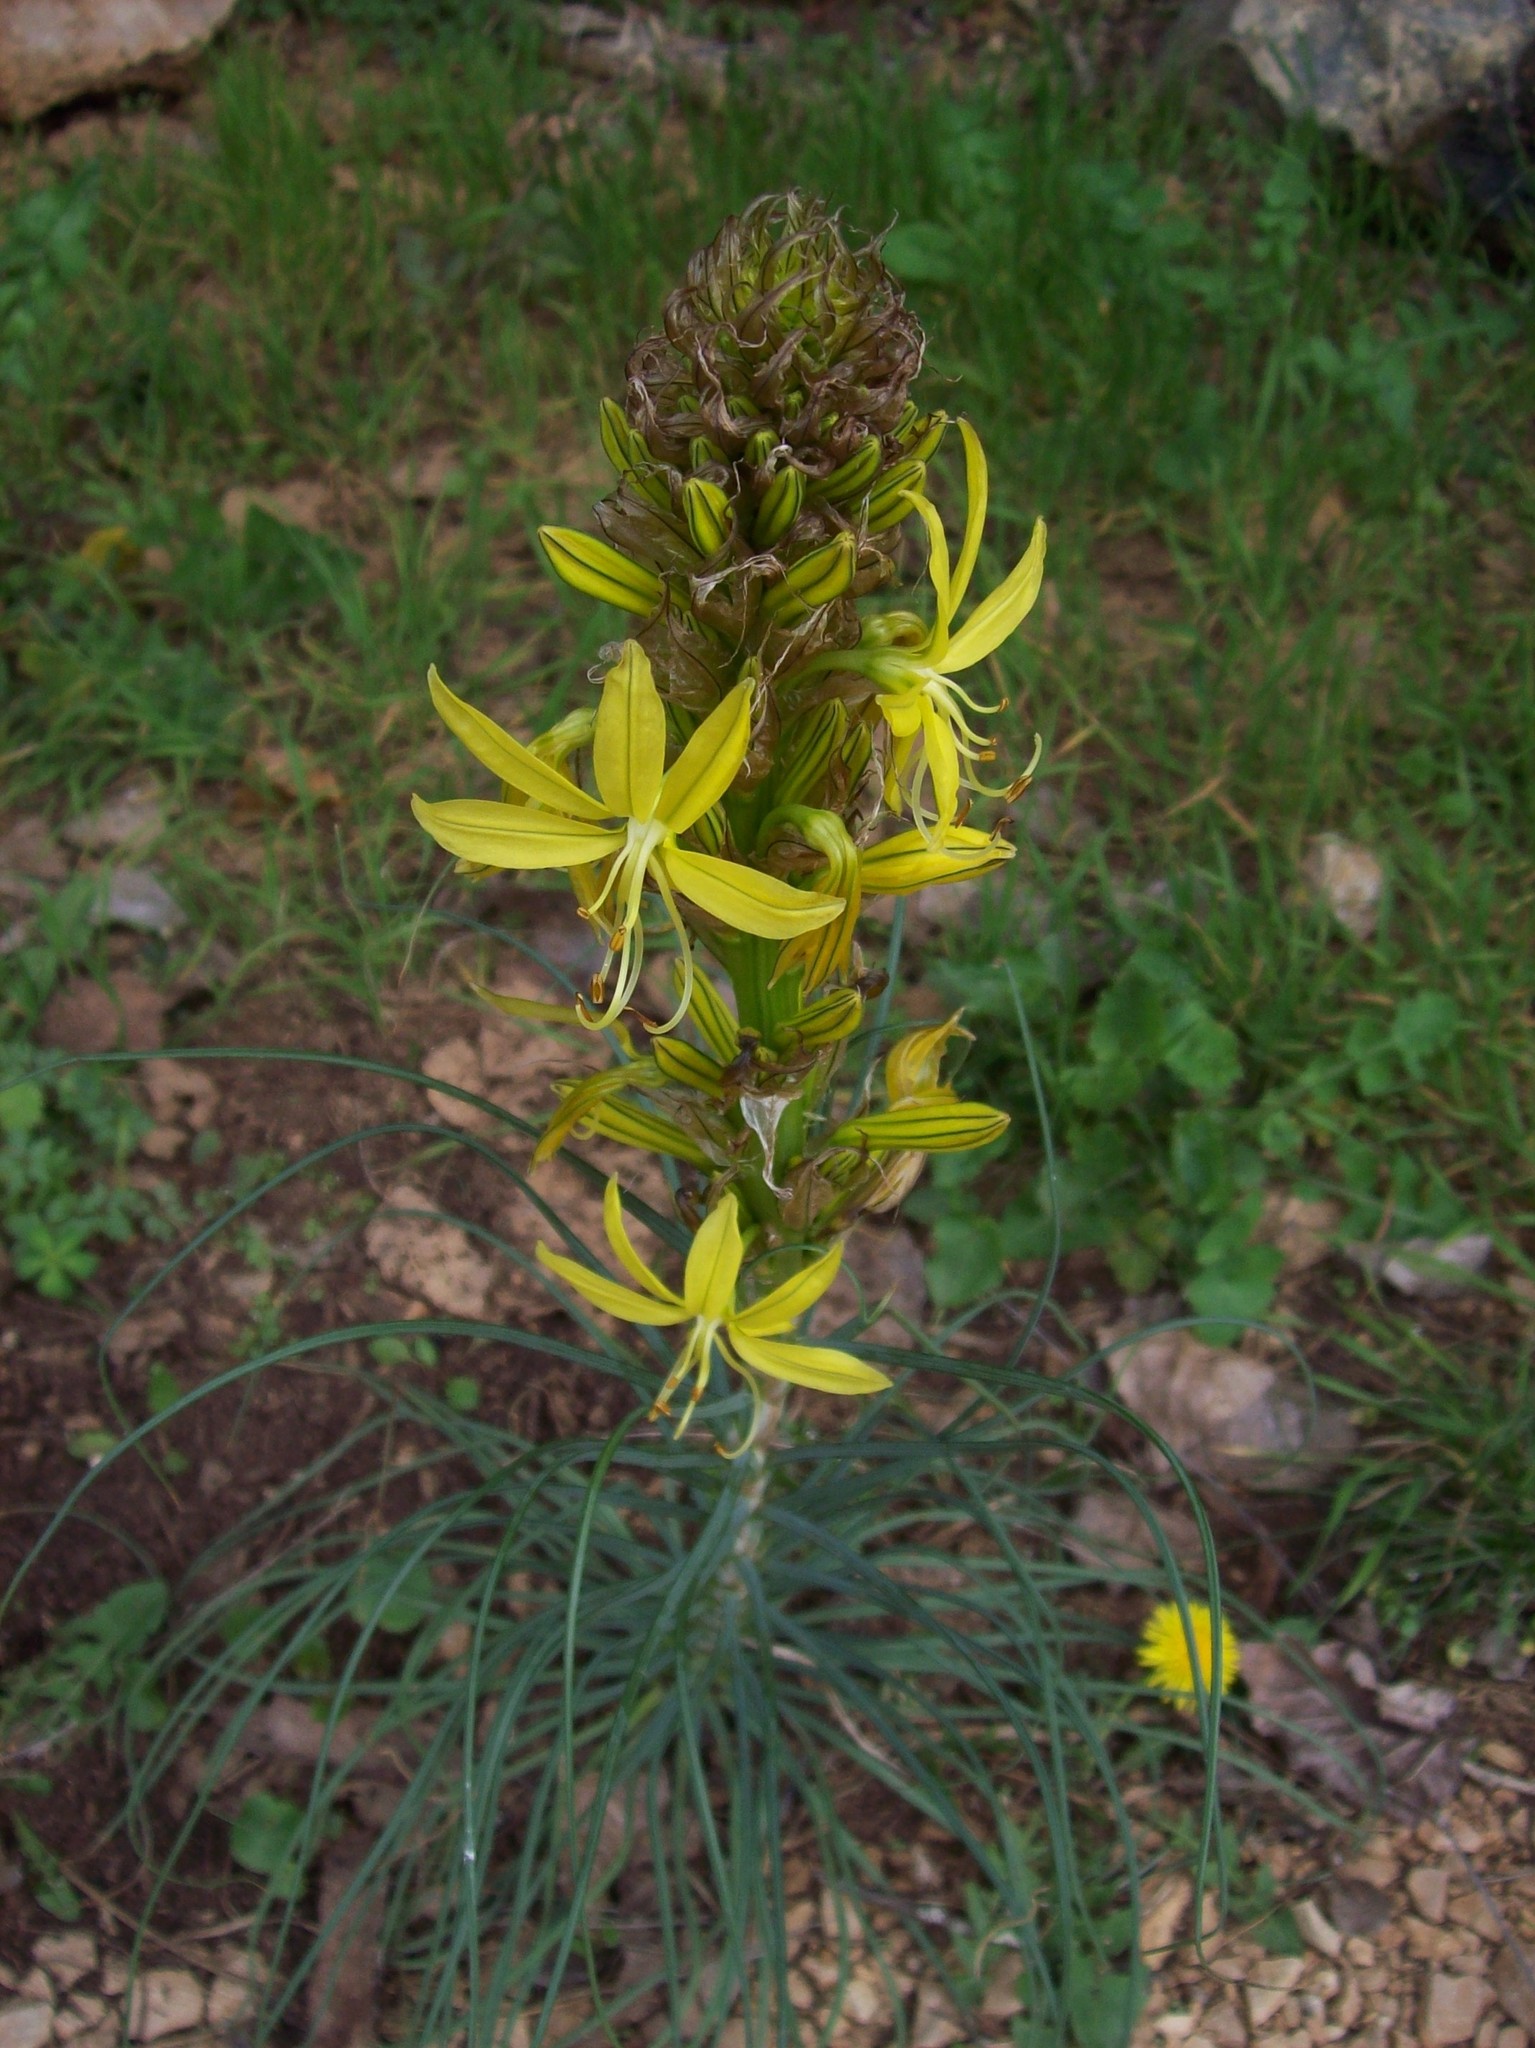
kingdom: Plantae
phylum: Tracheophyta
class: Liliopsida
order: Asparagales
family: Asphodelaceae
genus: Asphodeline
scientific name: Asphodeline lutea
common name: Yellow asphodel
